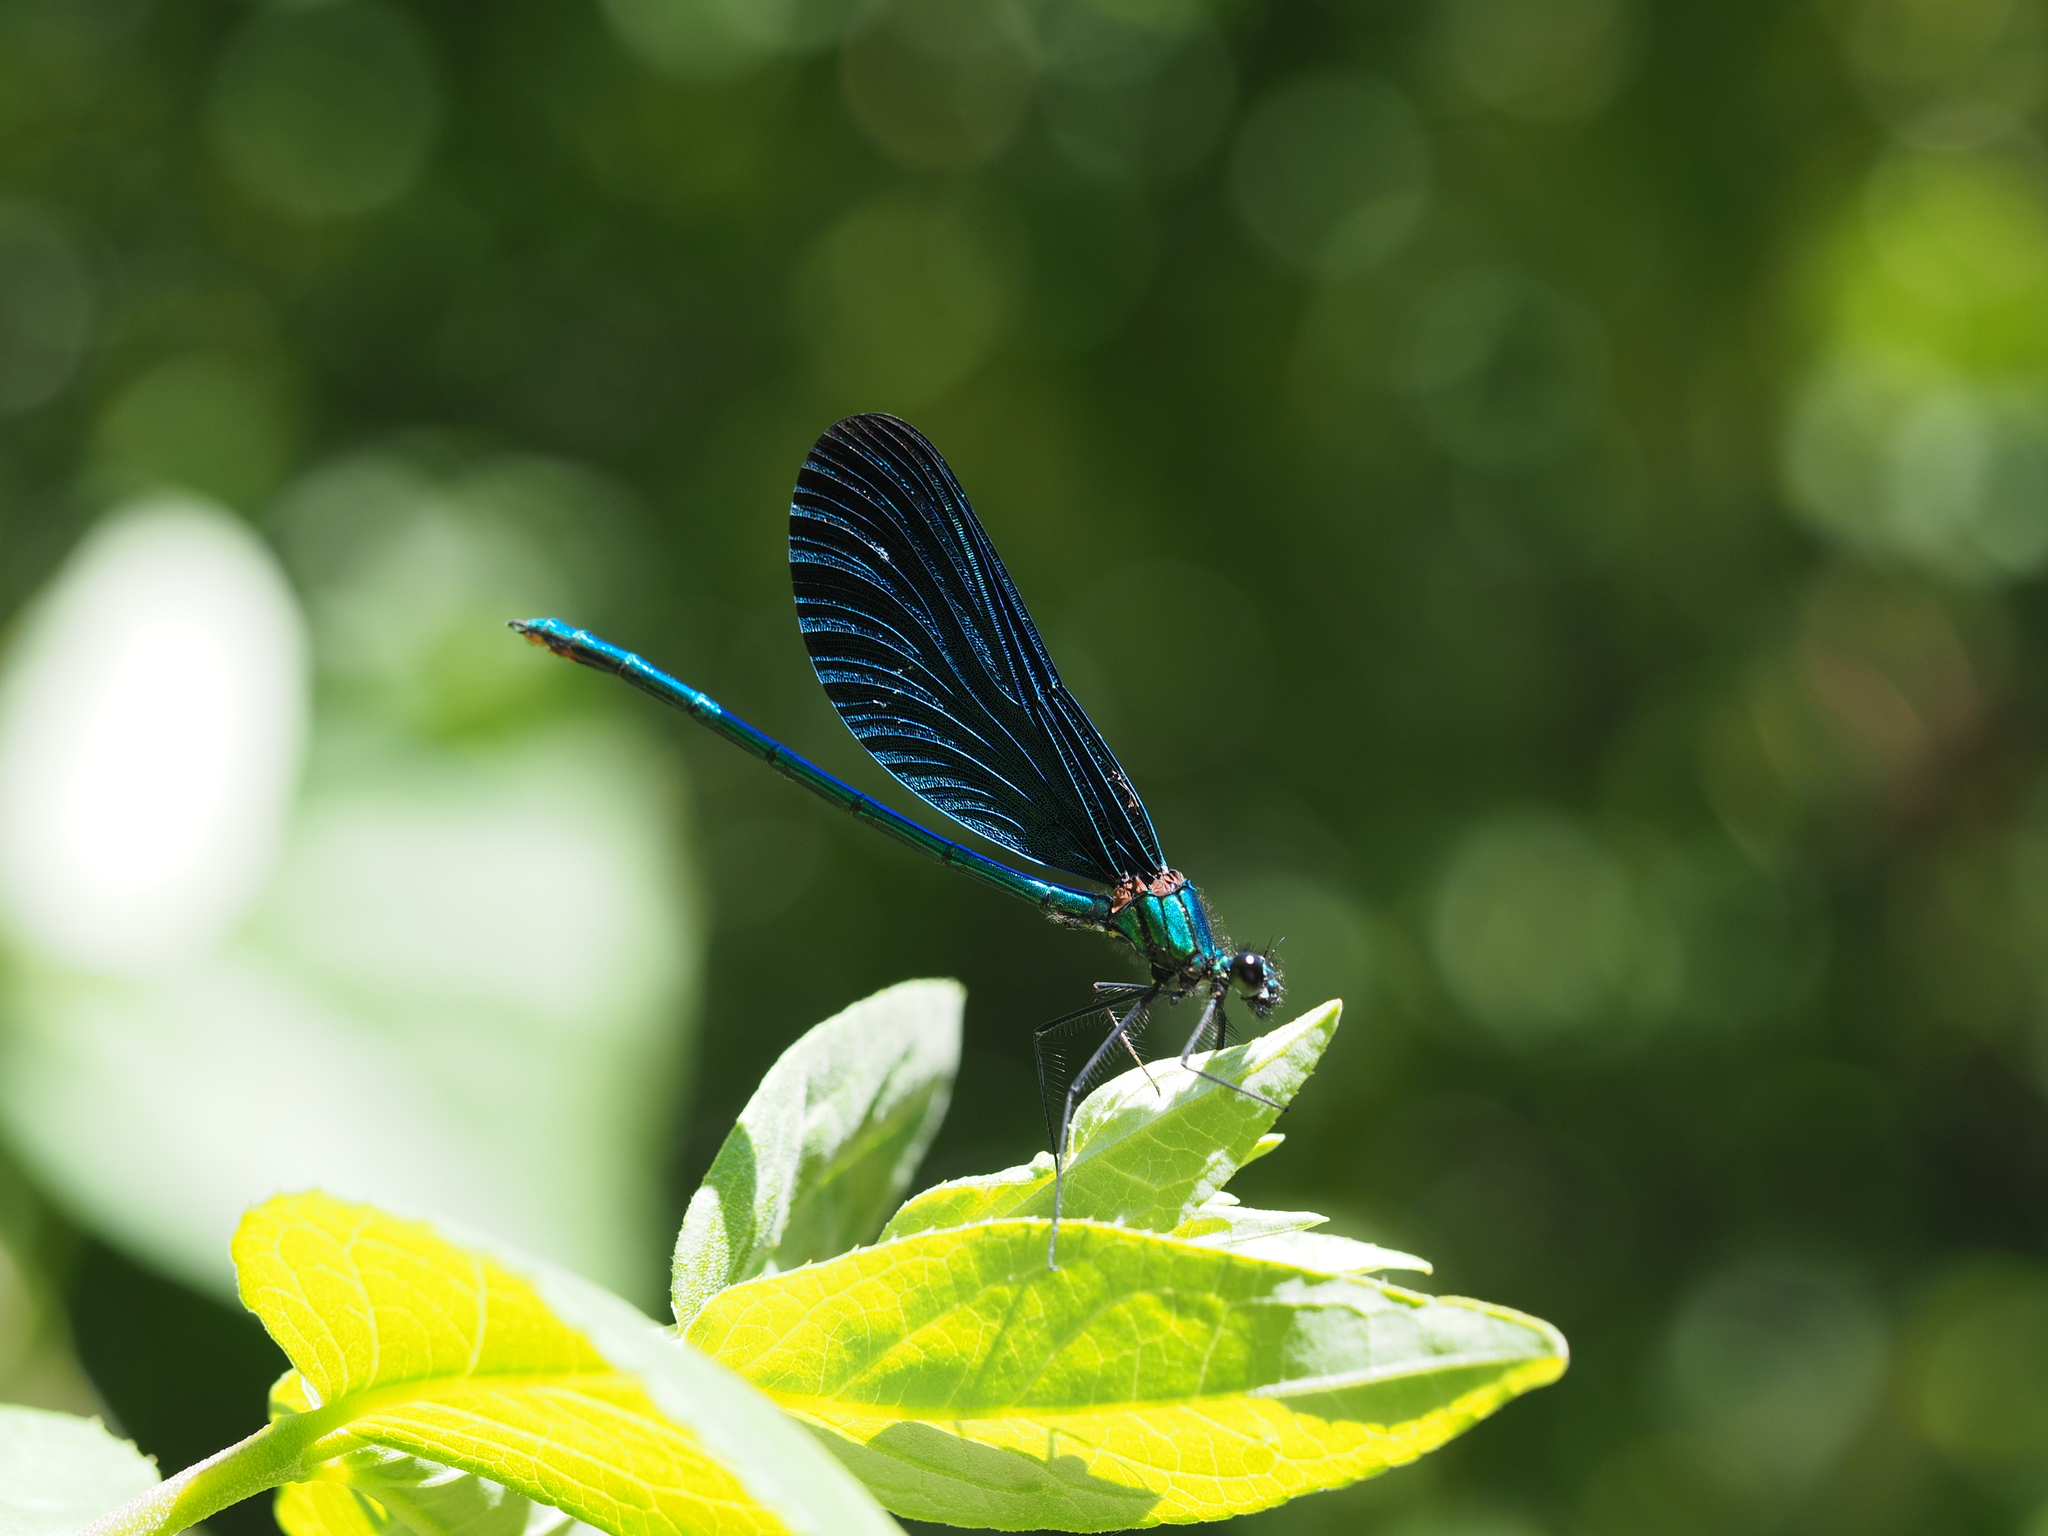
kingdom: Animalia
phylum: Arthropoda
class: Insecta
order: Odonata
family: Calopterygidae
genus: Calopteryx
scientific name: Calopteryx virgo
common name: Beautiful demoiselle
